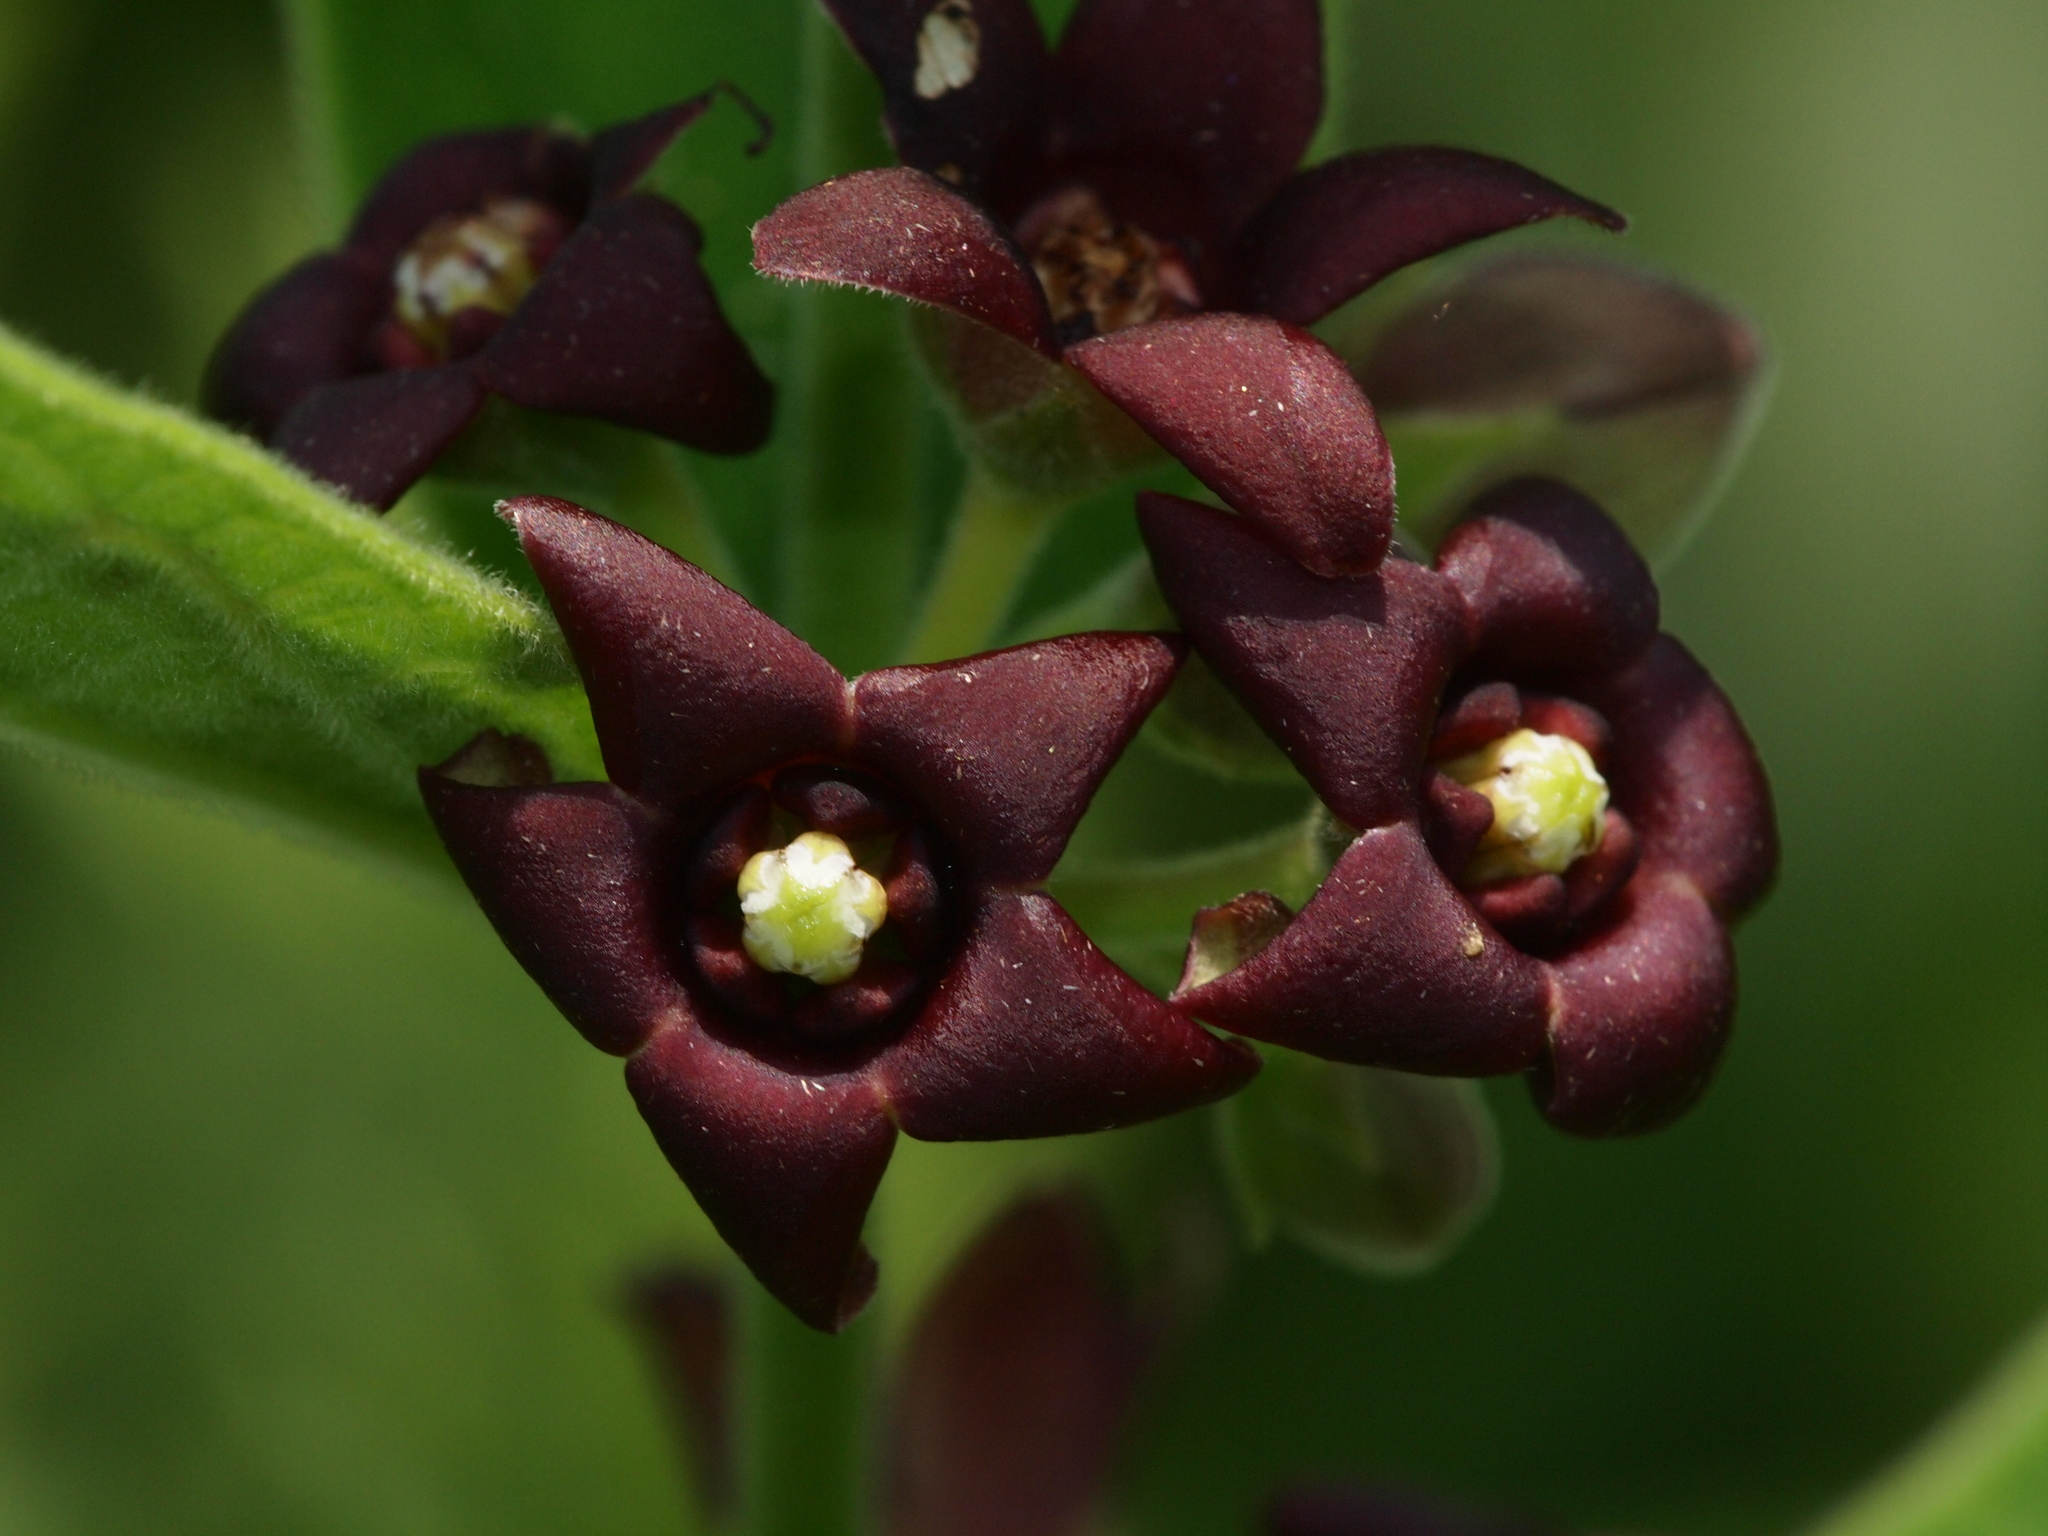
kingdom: Plantae
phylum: Tracheophyta
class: Magnoliopsida
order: Gentianales
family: Apocynaceae
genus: Vincetoxicum
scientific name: Vincetoxicum atratum
